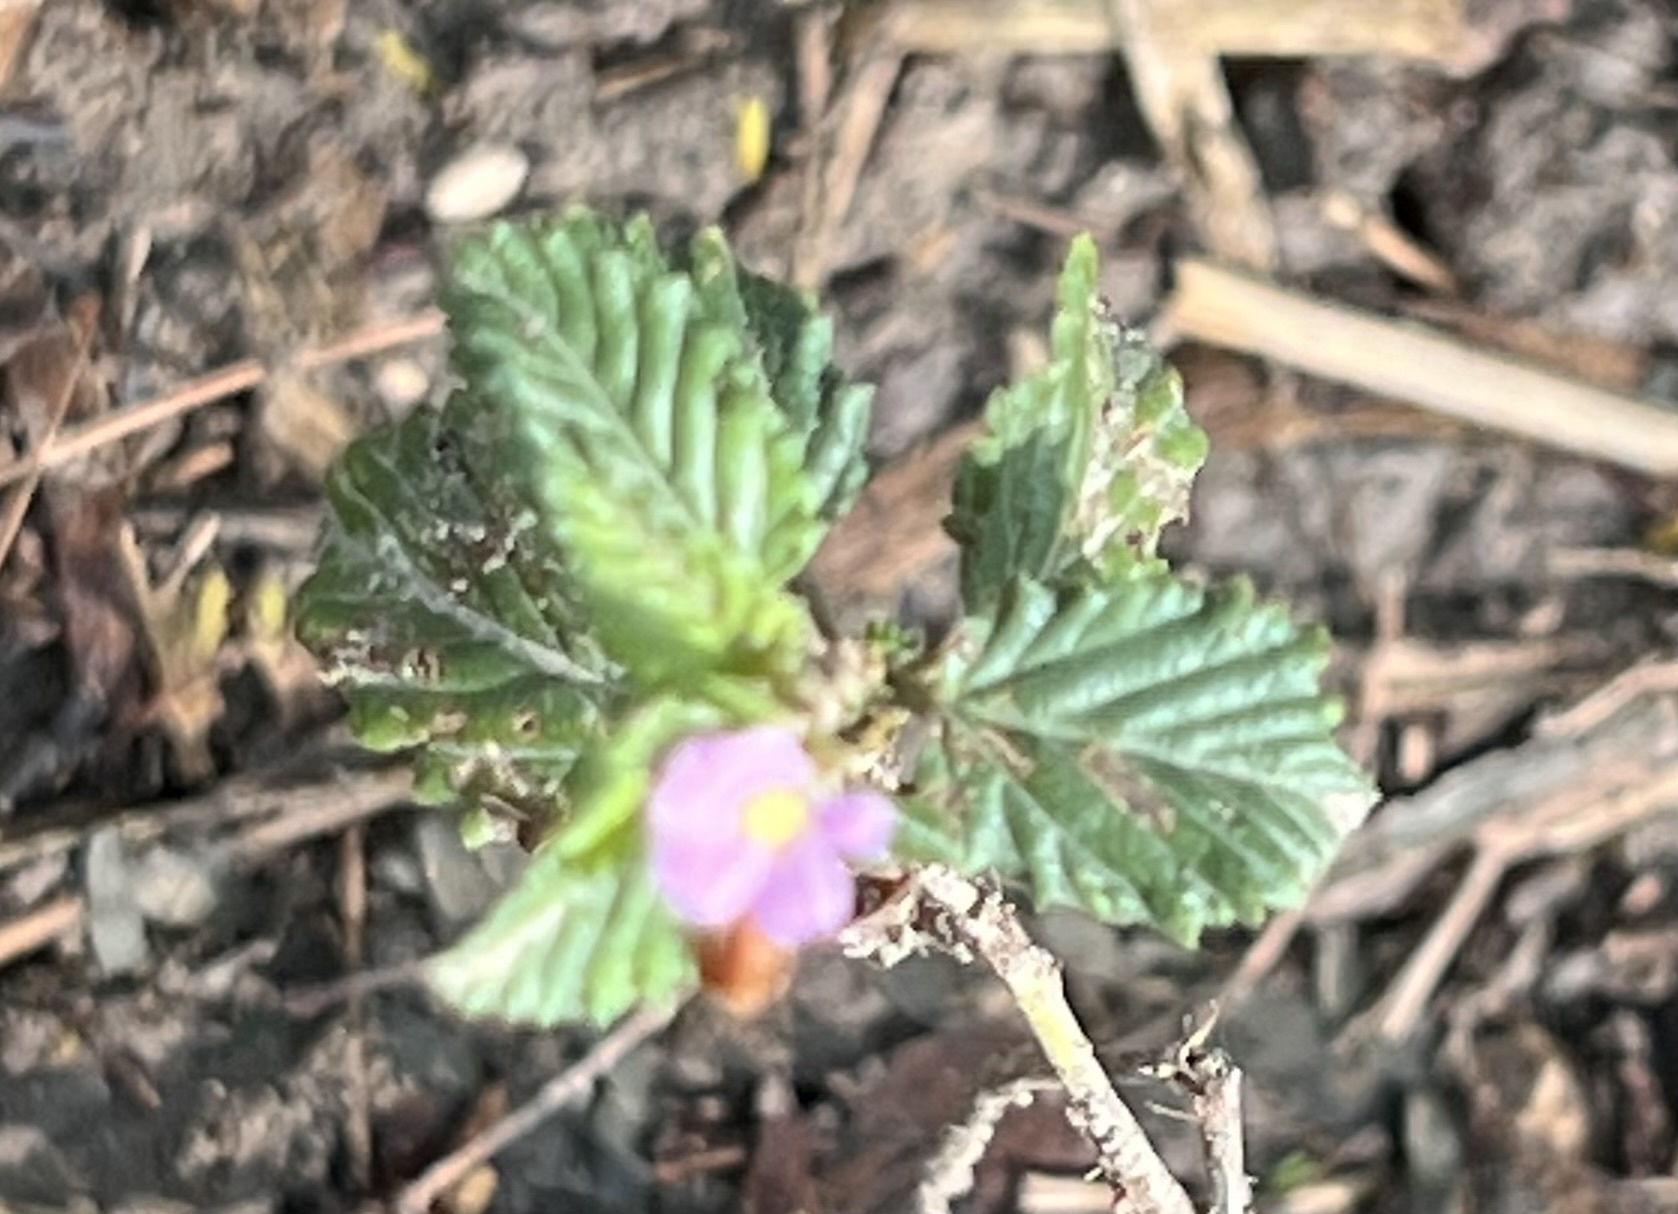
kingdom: Plantae
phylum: Tracheophyta
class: Magnoliopsida
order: Malvales
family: Malvaceae
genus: Melochia
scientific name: Melochia pyramidata
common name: Pyramidflower
